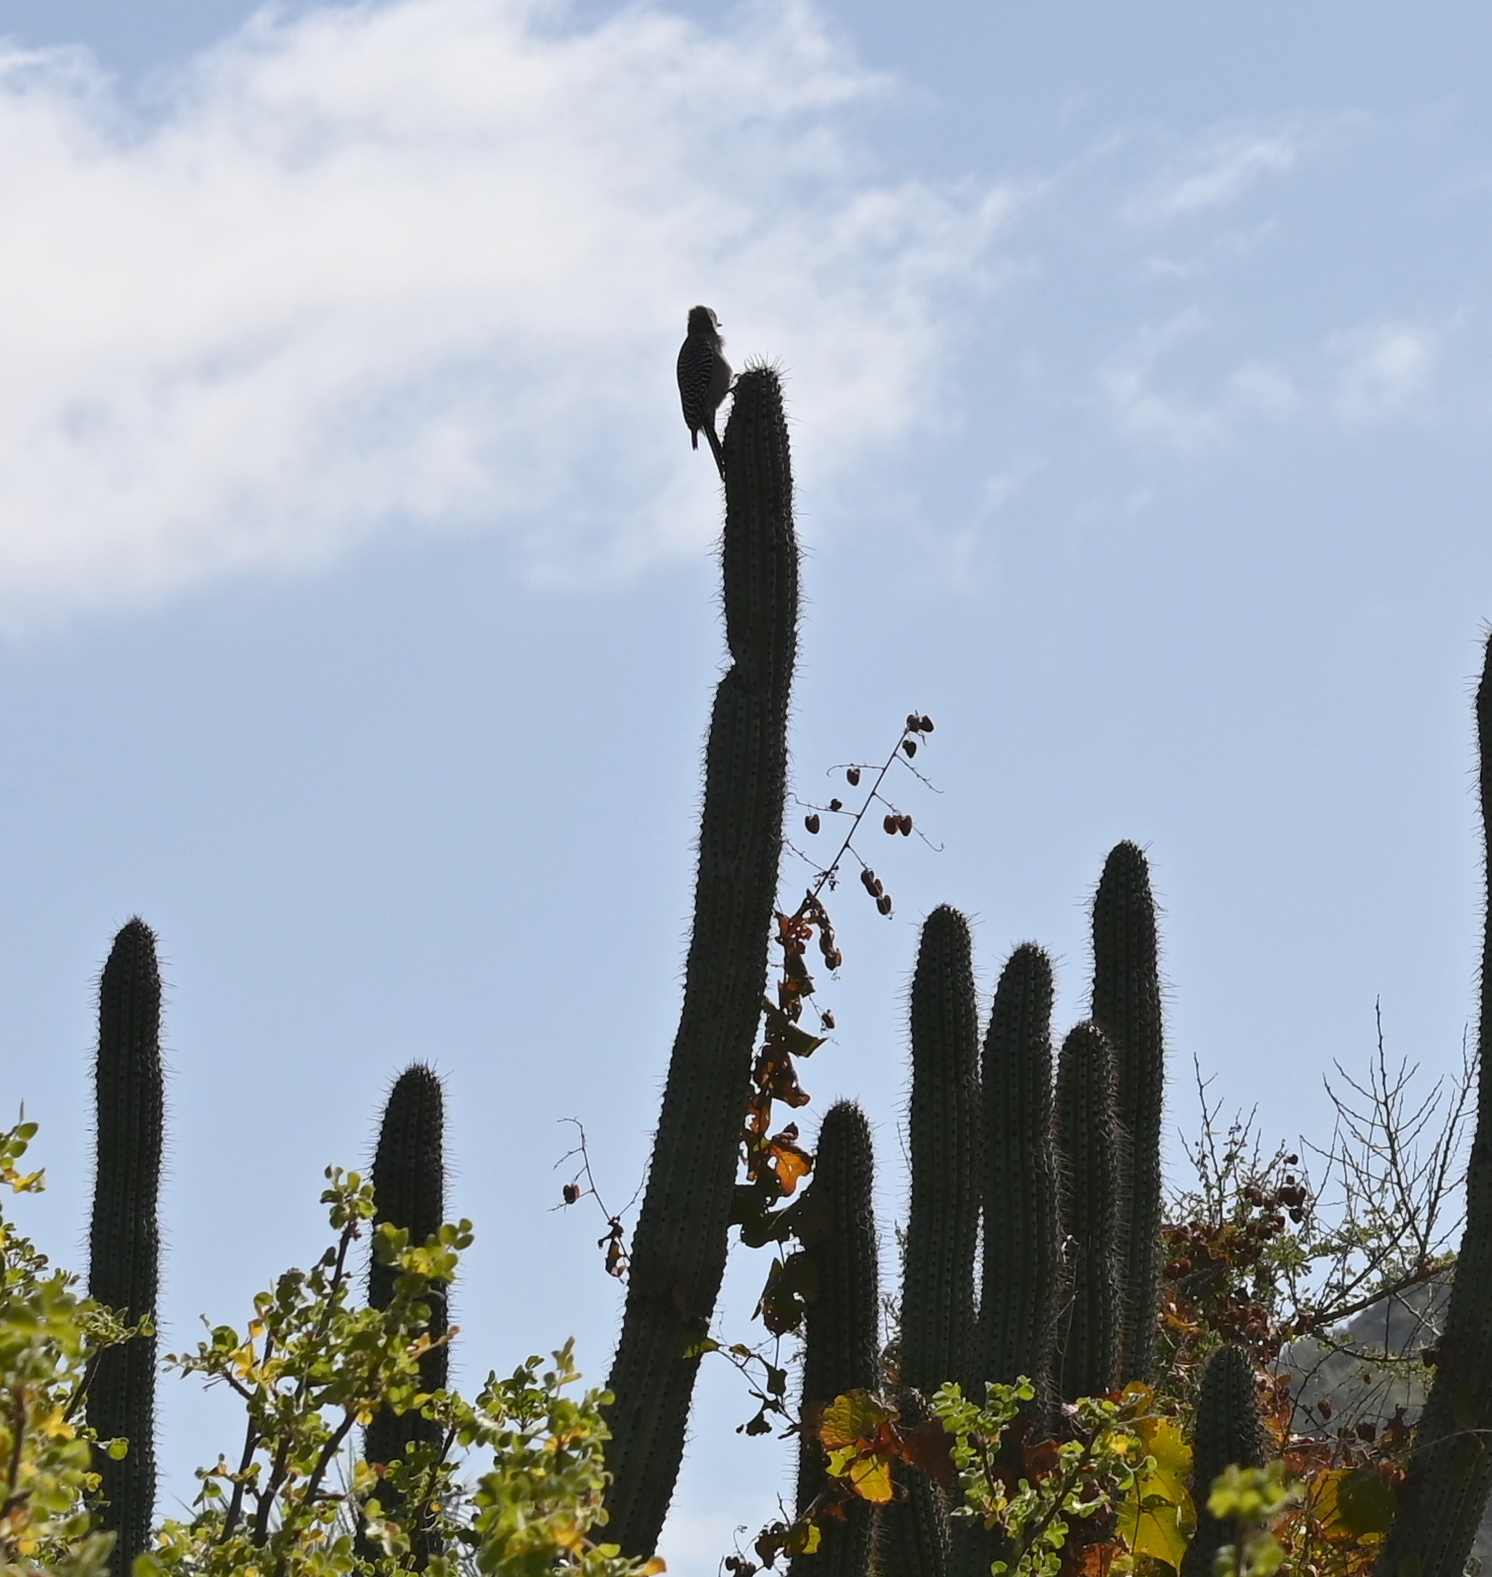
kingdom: Animalia
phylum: Chordata
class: Aves
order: Piciformes
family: Picidae
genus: Melanerpes
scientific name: Melanerpes uropygialis
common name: Gila woodpecker
